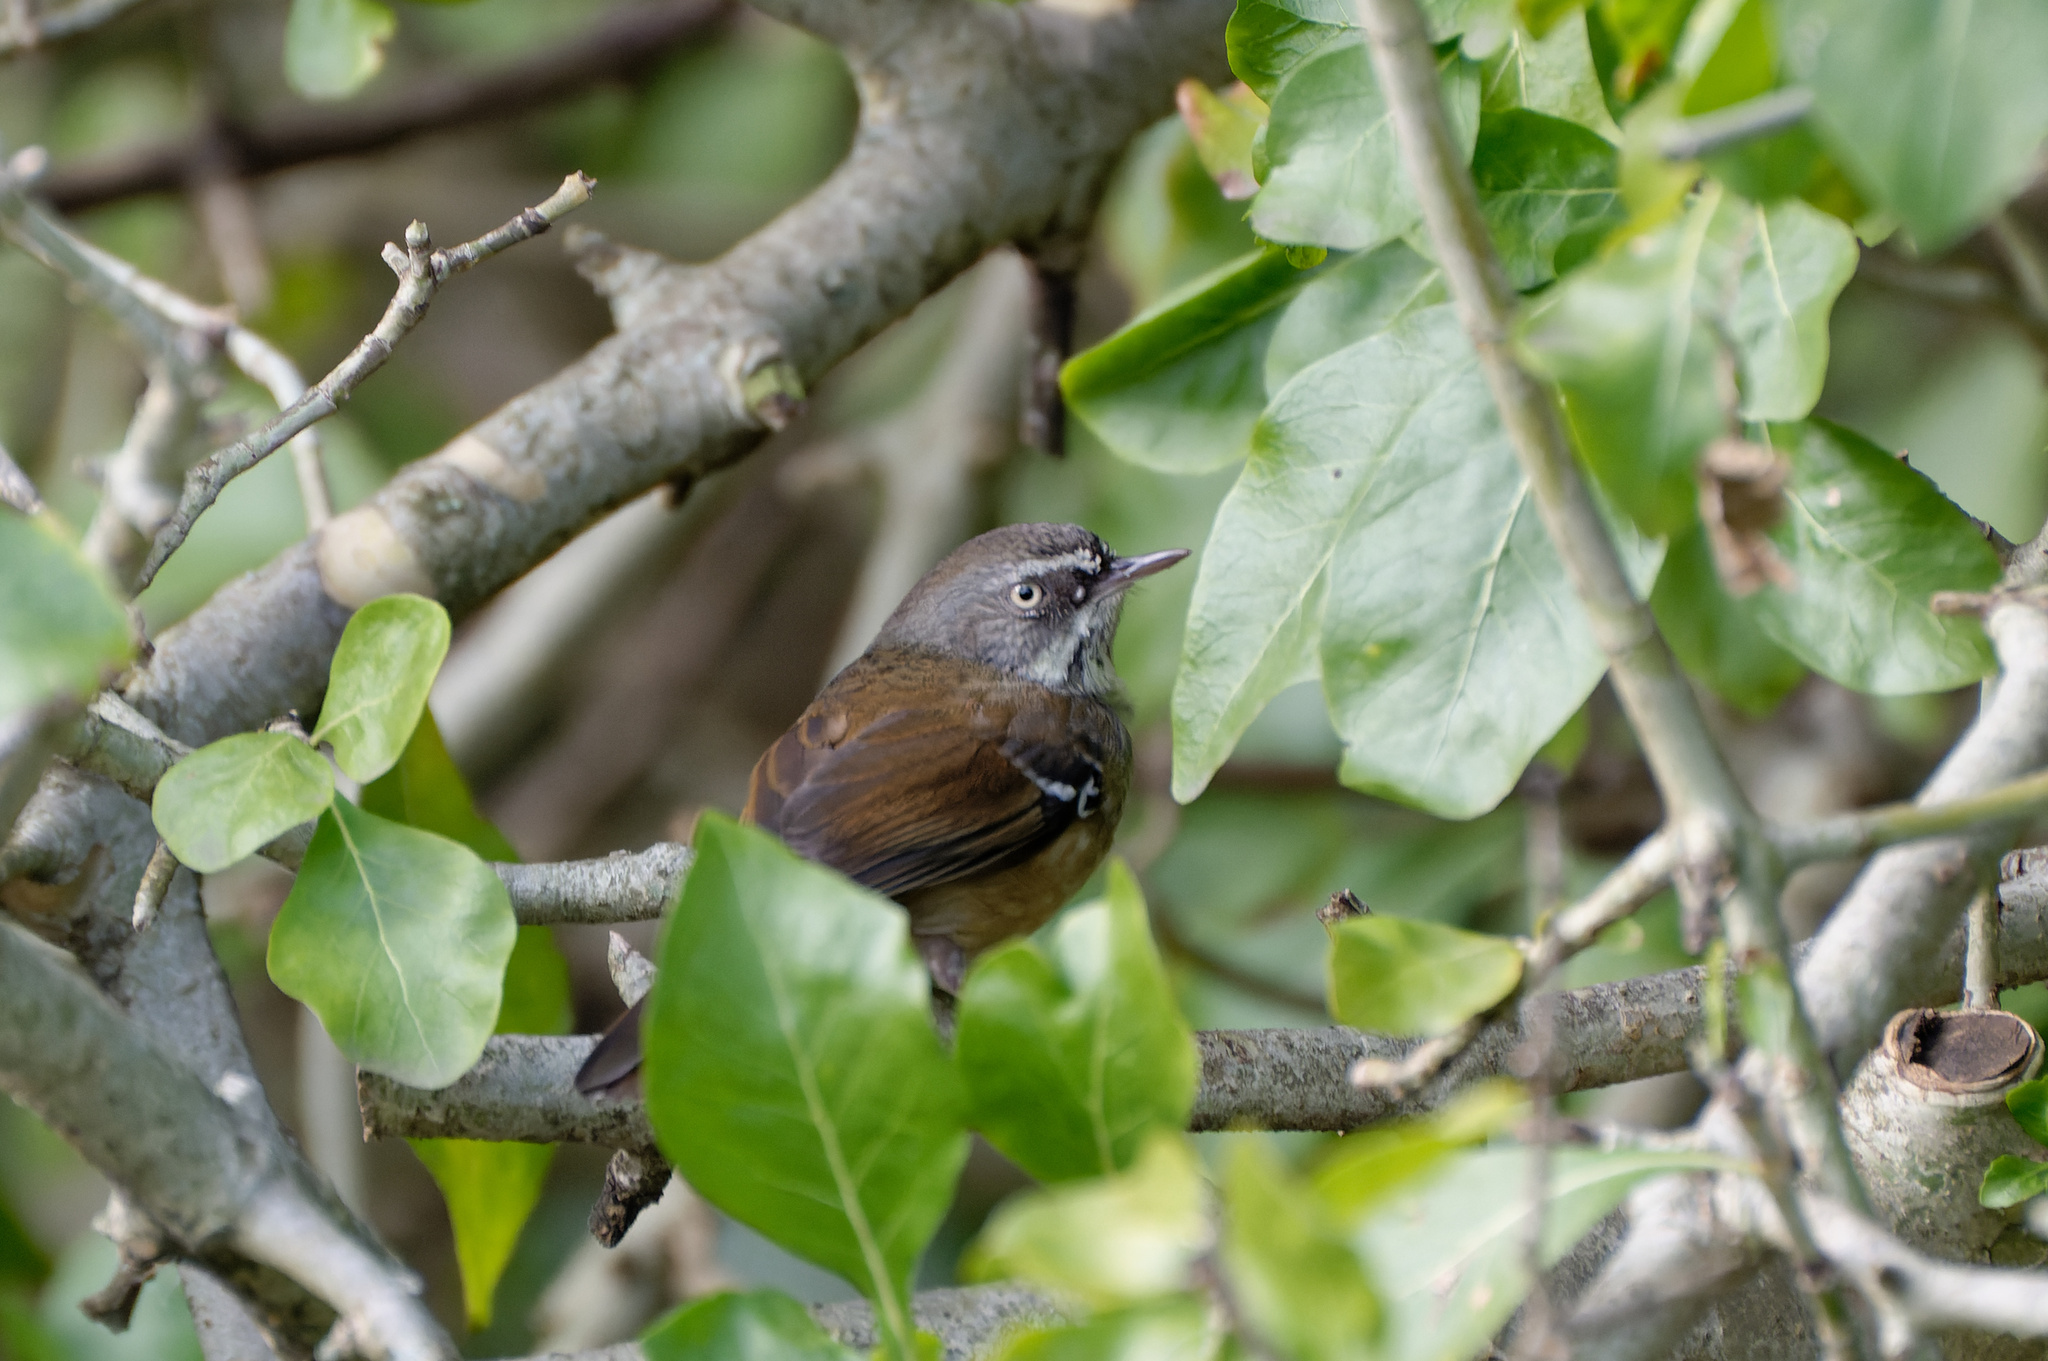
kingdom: Animalia
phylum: Chordata
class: Aves
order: Passeriformes
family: Acanthizidae
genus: Sericornis
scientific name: Sericornis frontalis
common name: White-browed scrubwren
